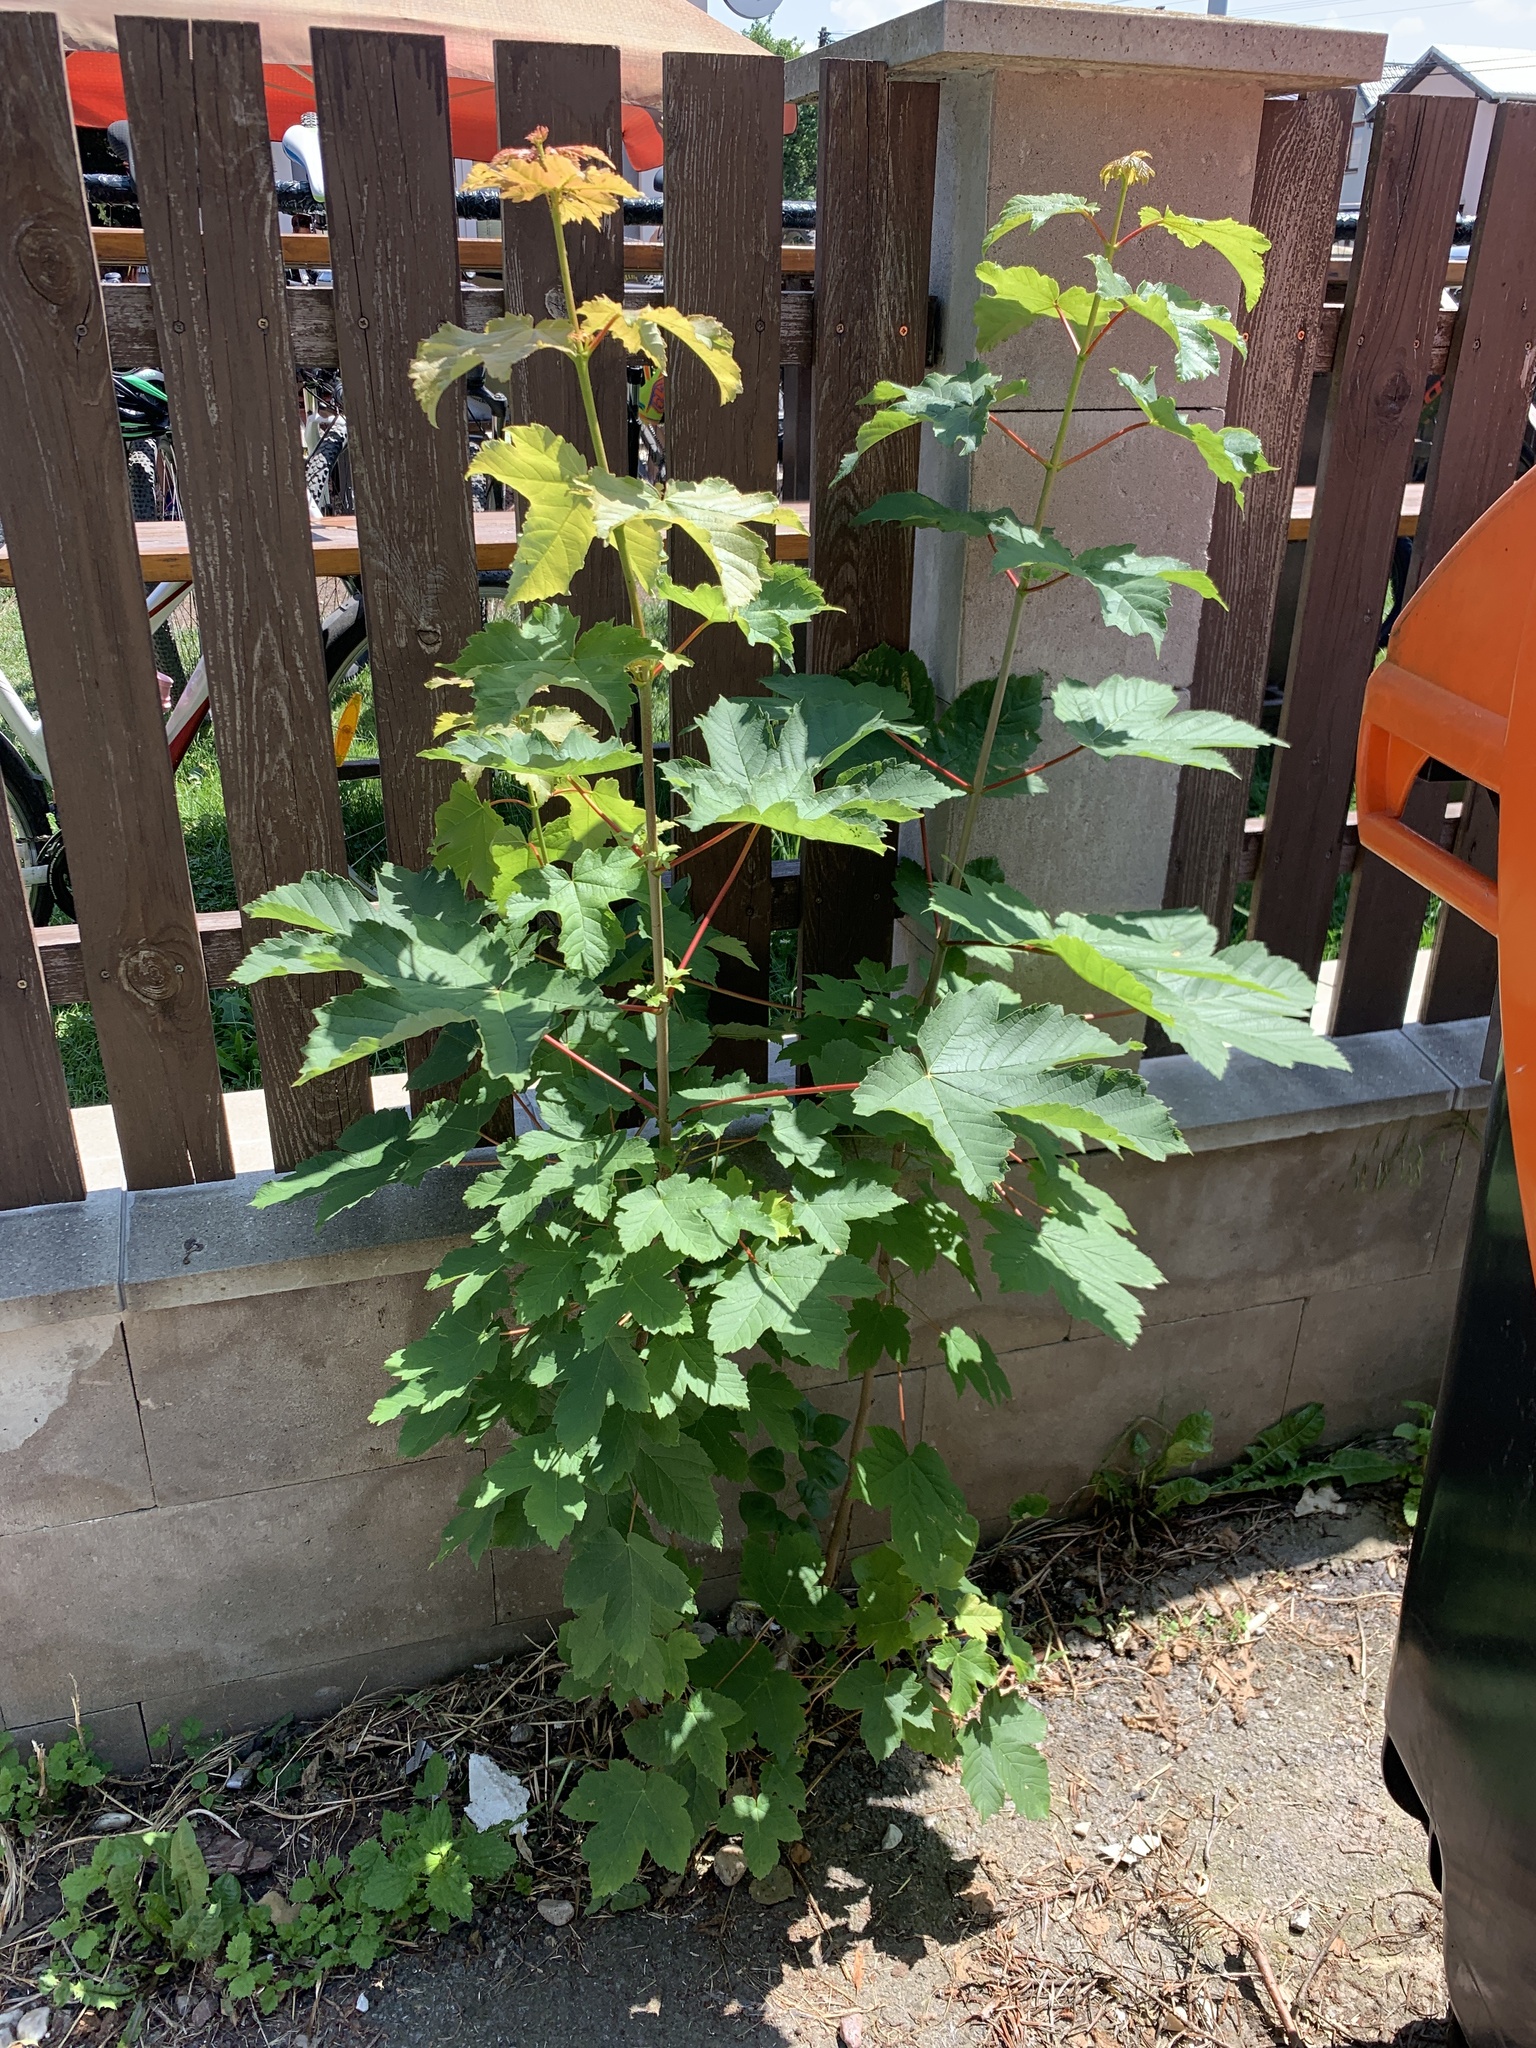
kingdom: Plantae
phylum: Tracheophyta
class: Magnoliopsida
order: Sapindales
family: Sapindaceae
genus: Acer
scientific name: Acer pseudoplatanus
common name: Sycamore
